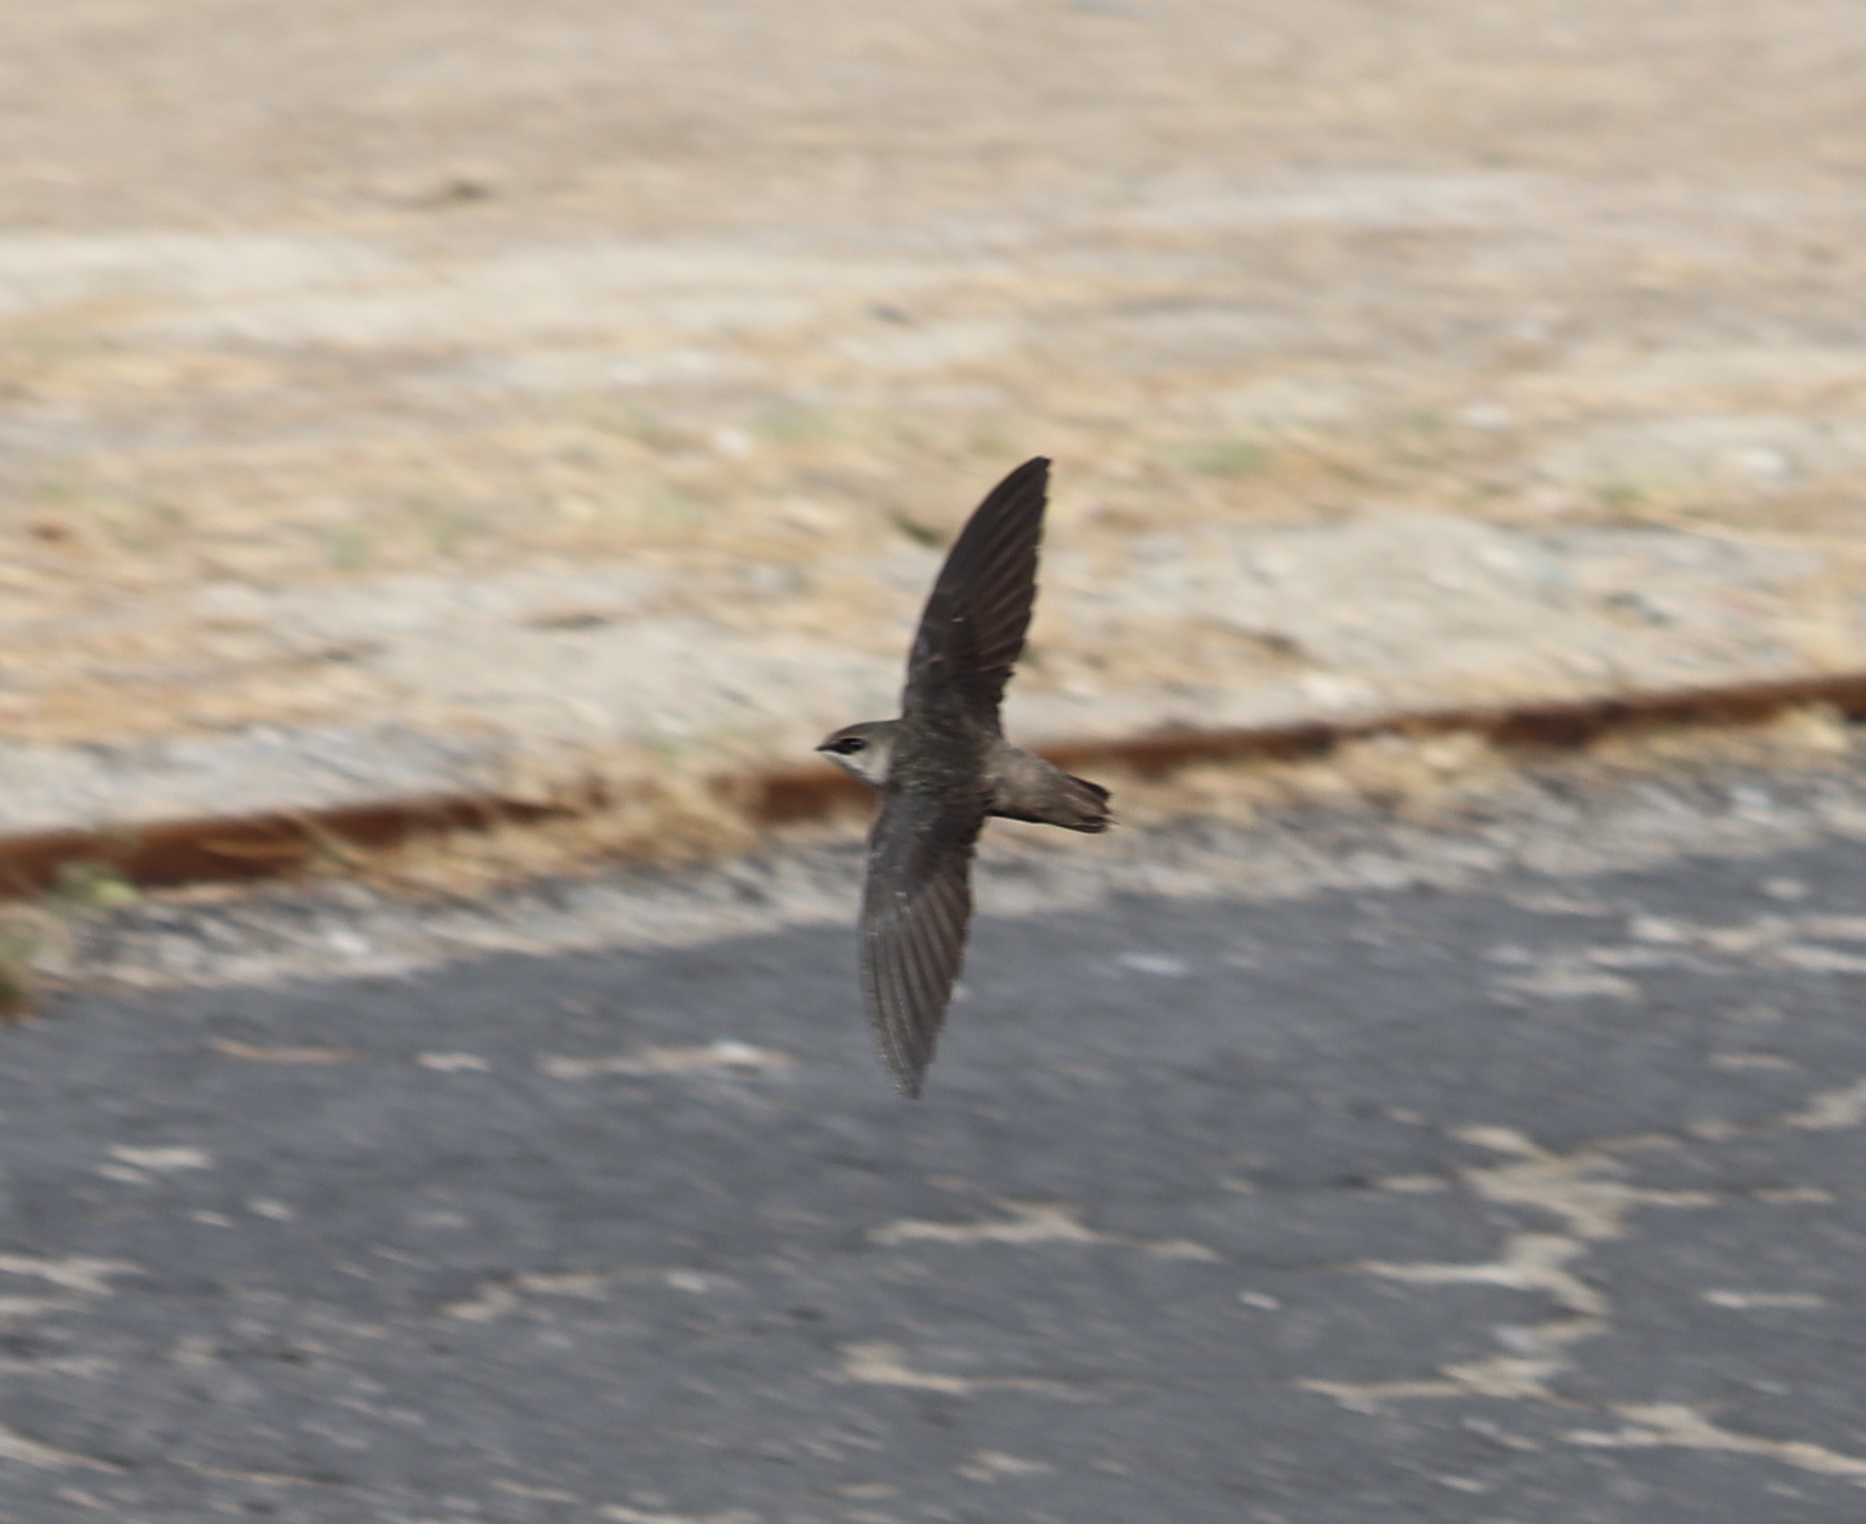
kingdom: Animalia
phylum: Chordata
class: Aves
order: Apodiformes
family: Apodidae
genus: Chaetura
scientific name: Chaetura vauxi
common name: Vaux's swift
